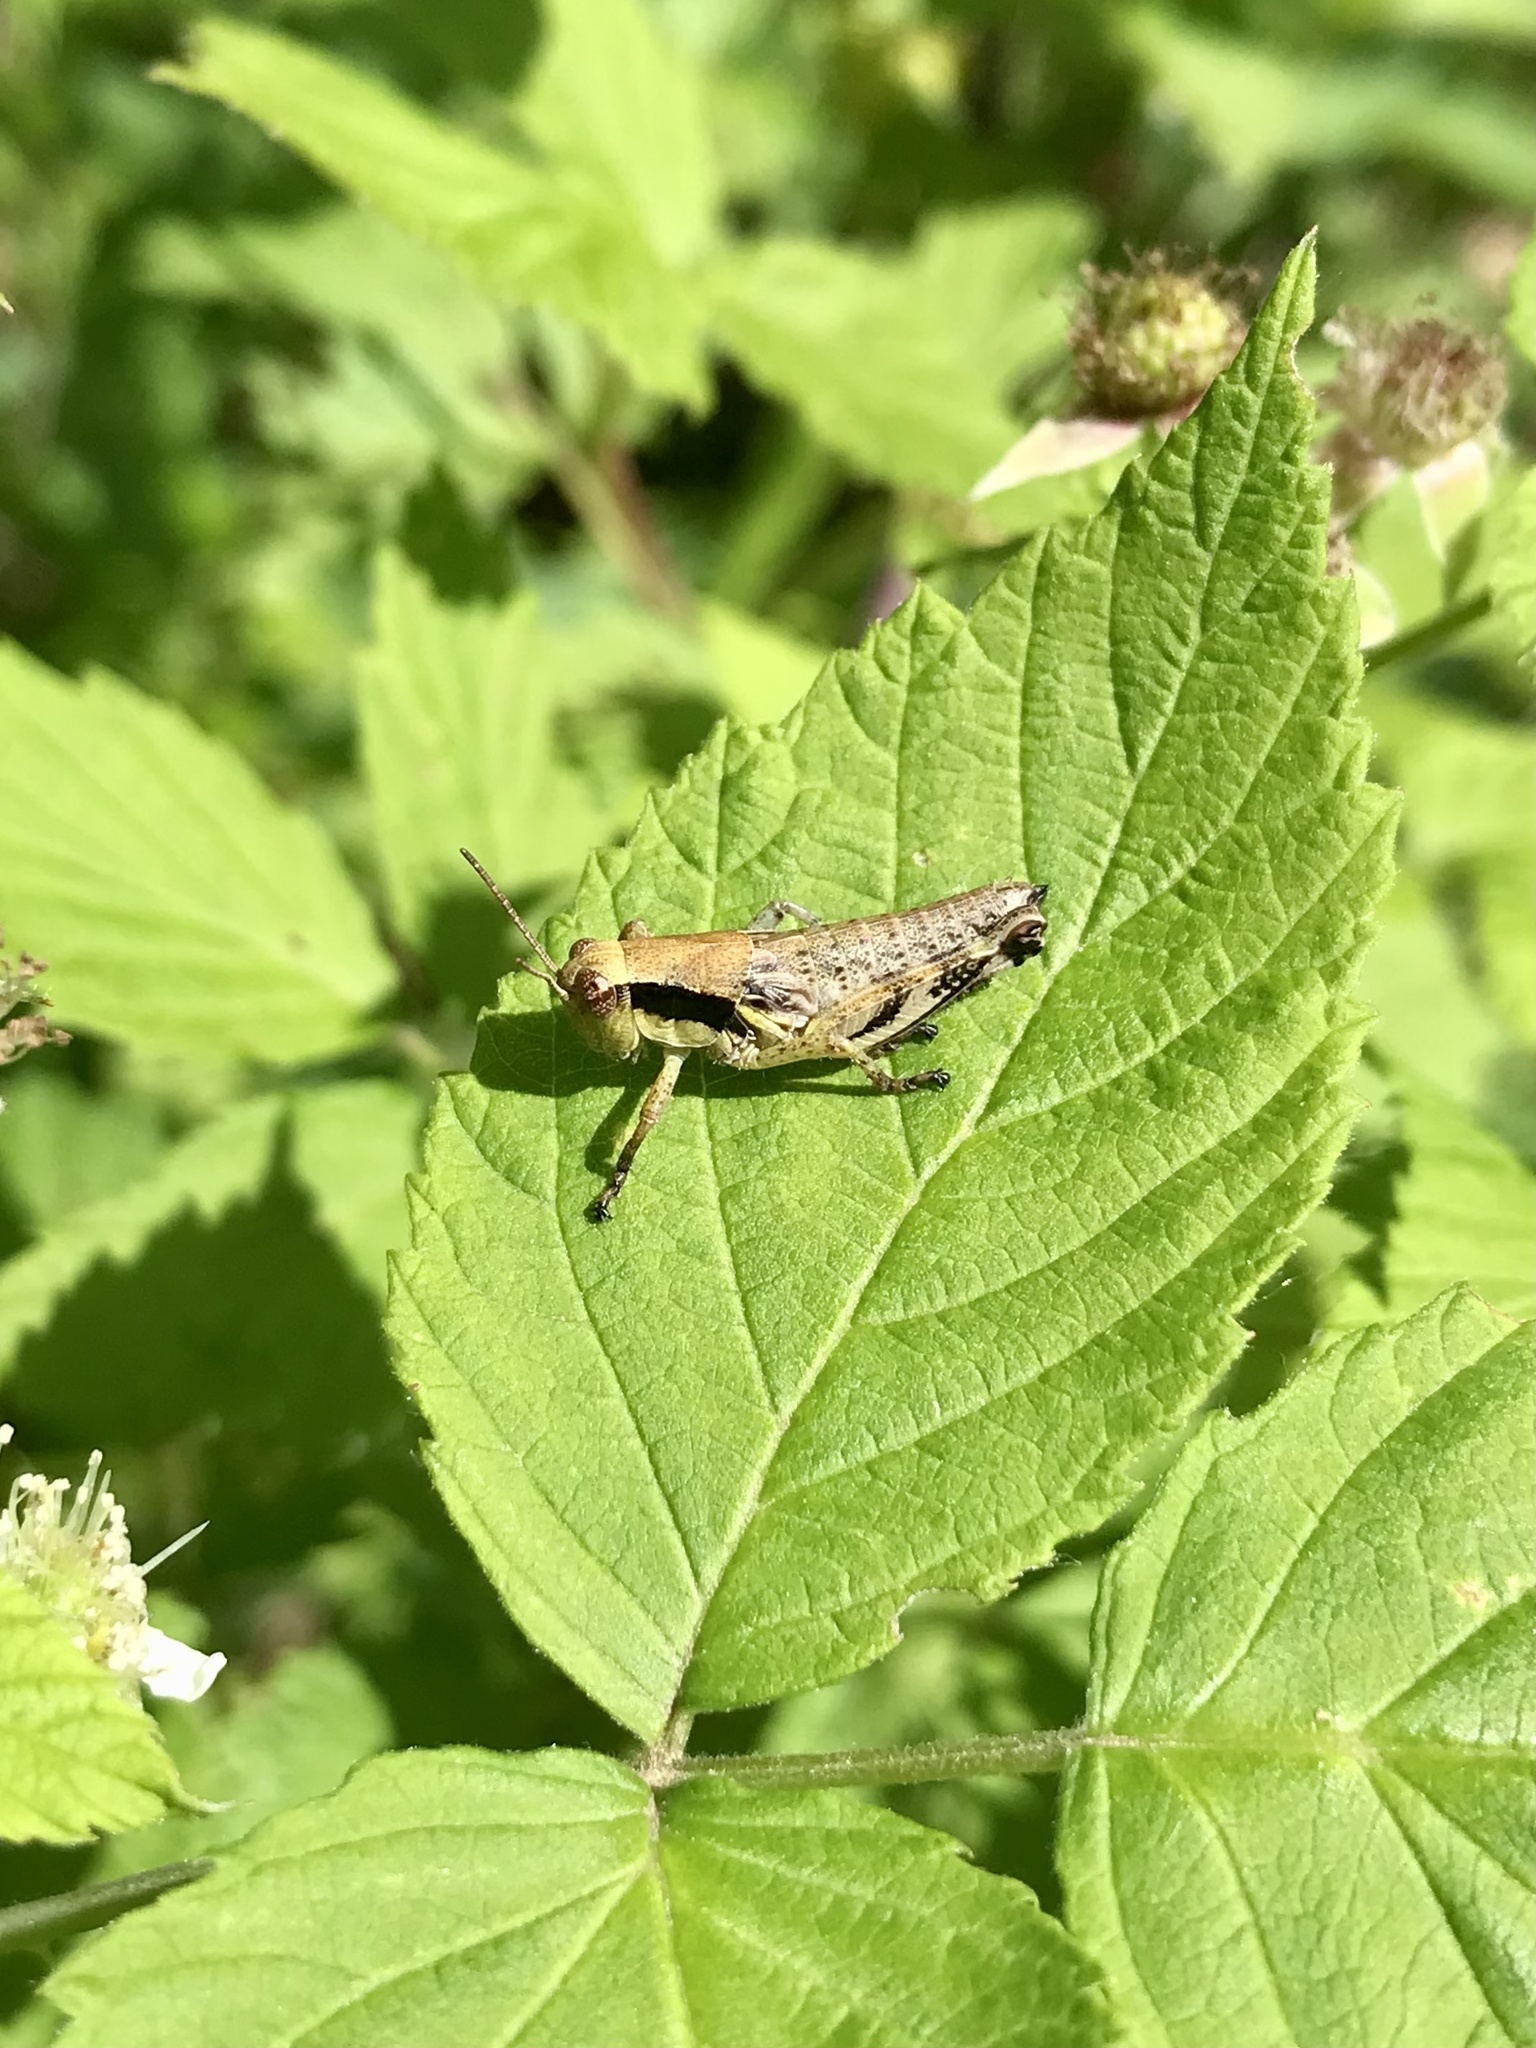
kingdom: Animalia
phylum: Arthropoda
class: Insecta
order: Orthoptera
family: Acrididae
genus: Melanoplus
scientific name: Melanoplus viridipes
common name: Green-legged locust
